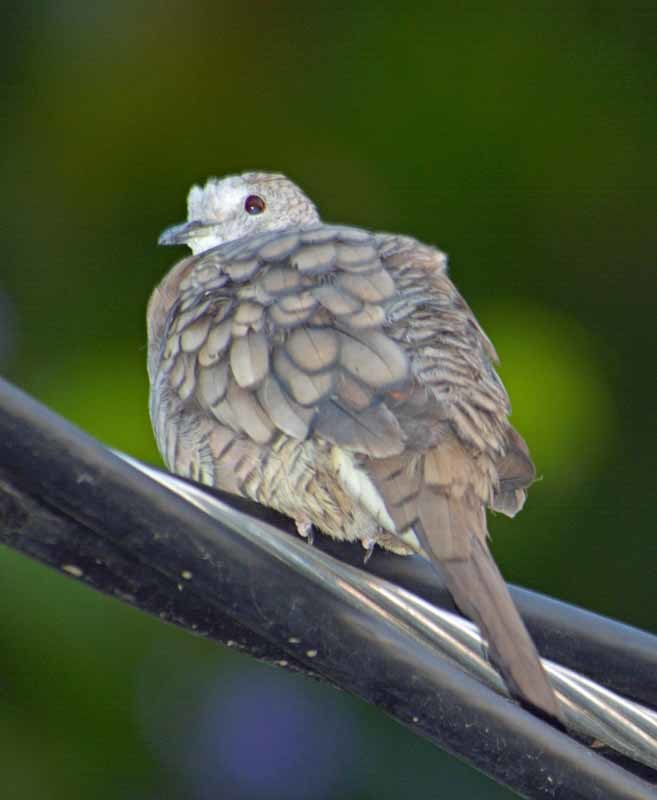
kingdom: Animalia
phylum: Chordata
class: Aves
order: Columbiformes
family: Columbidae
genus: Columbina
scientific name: Columbina inca
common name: Inca dove
